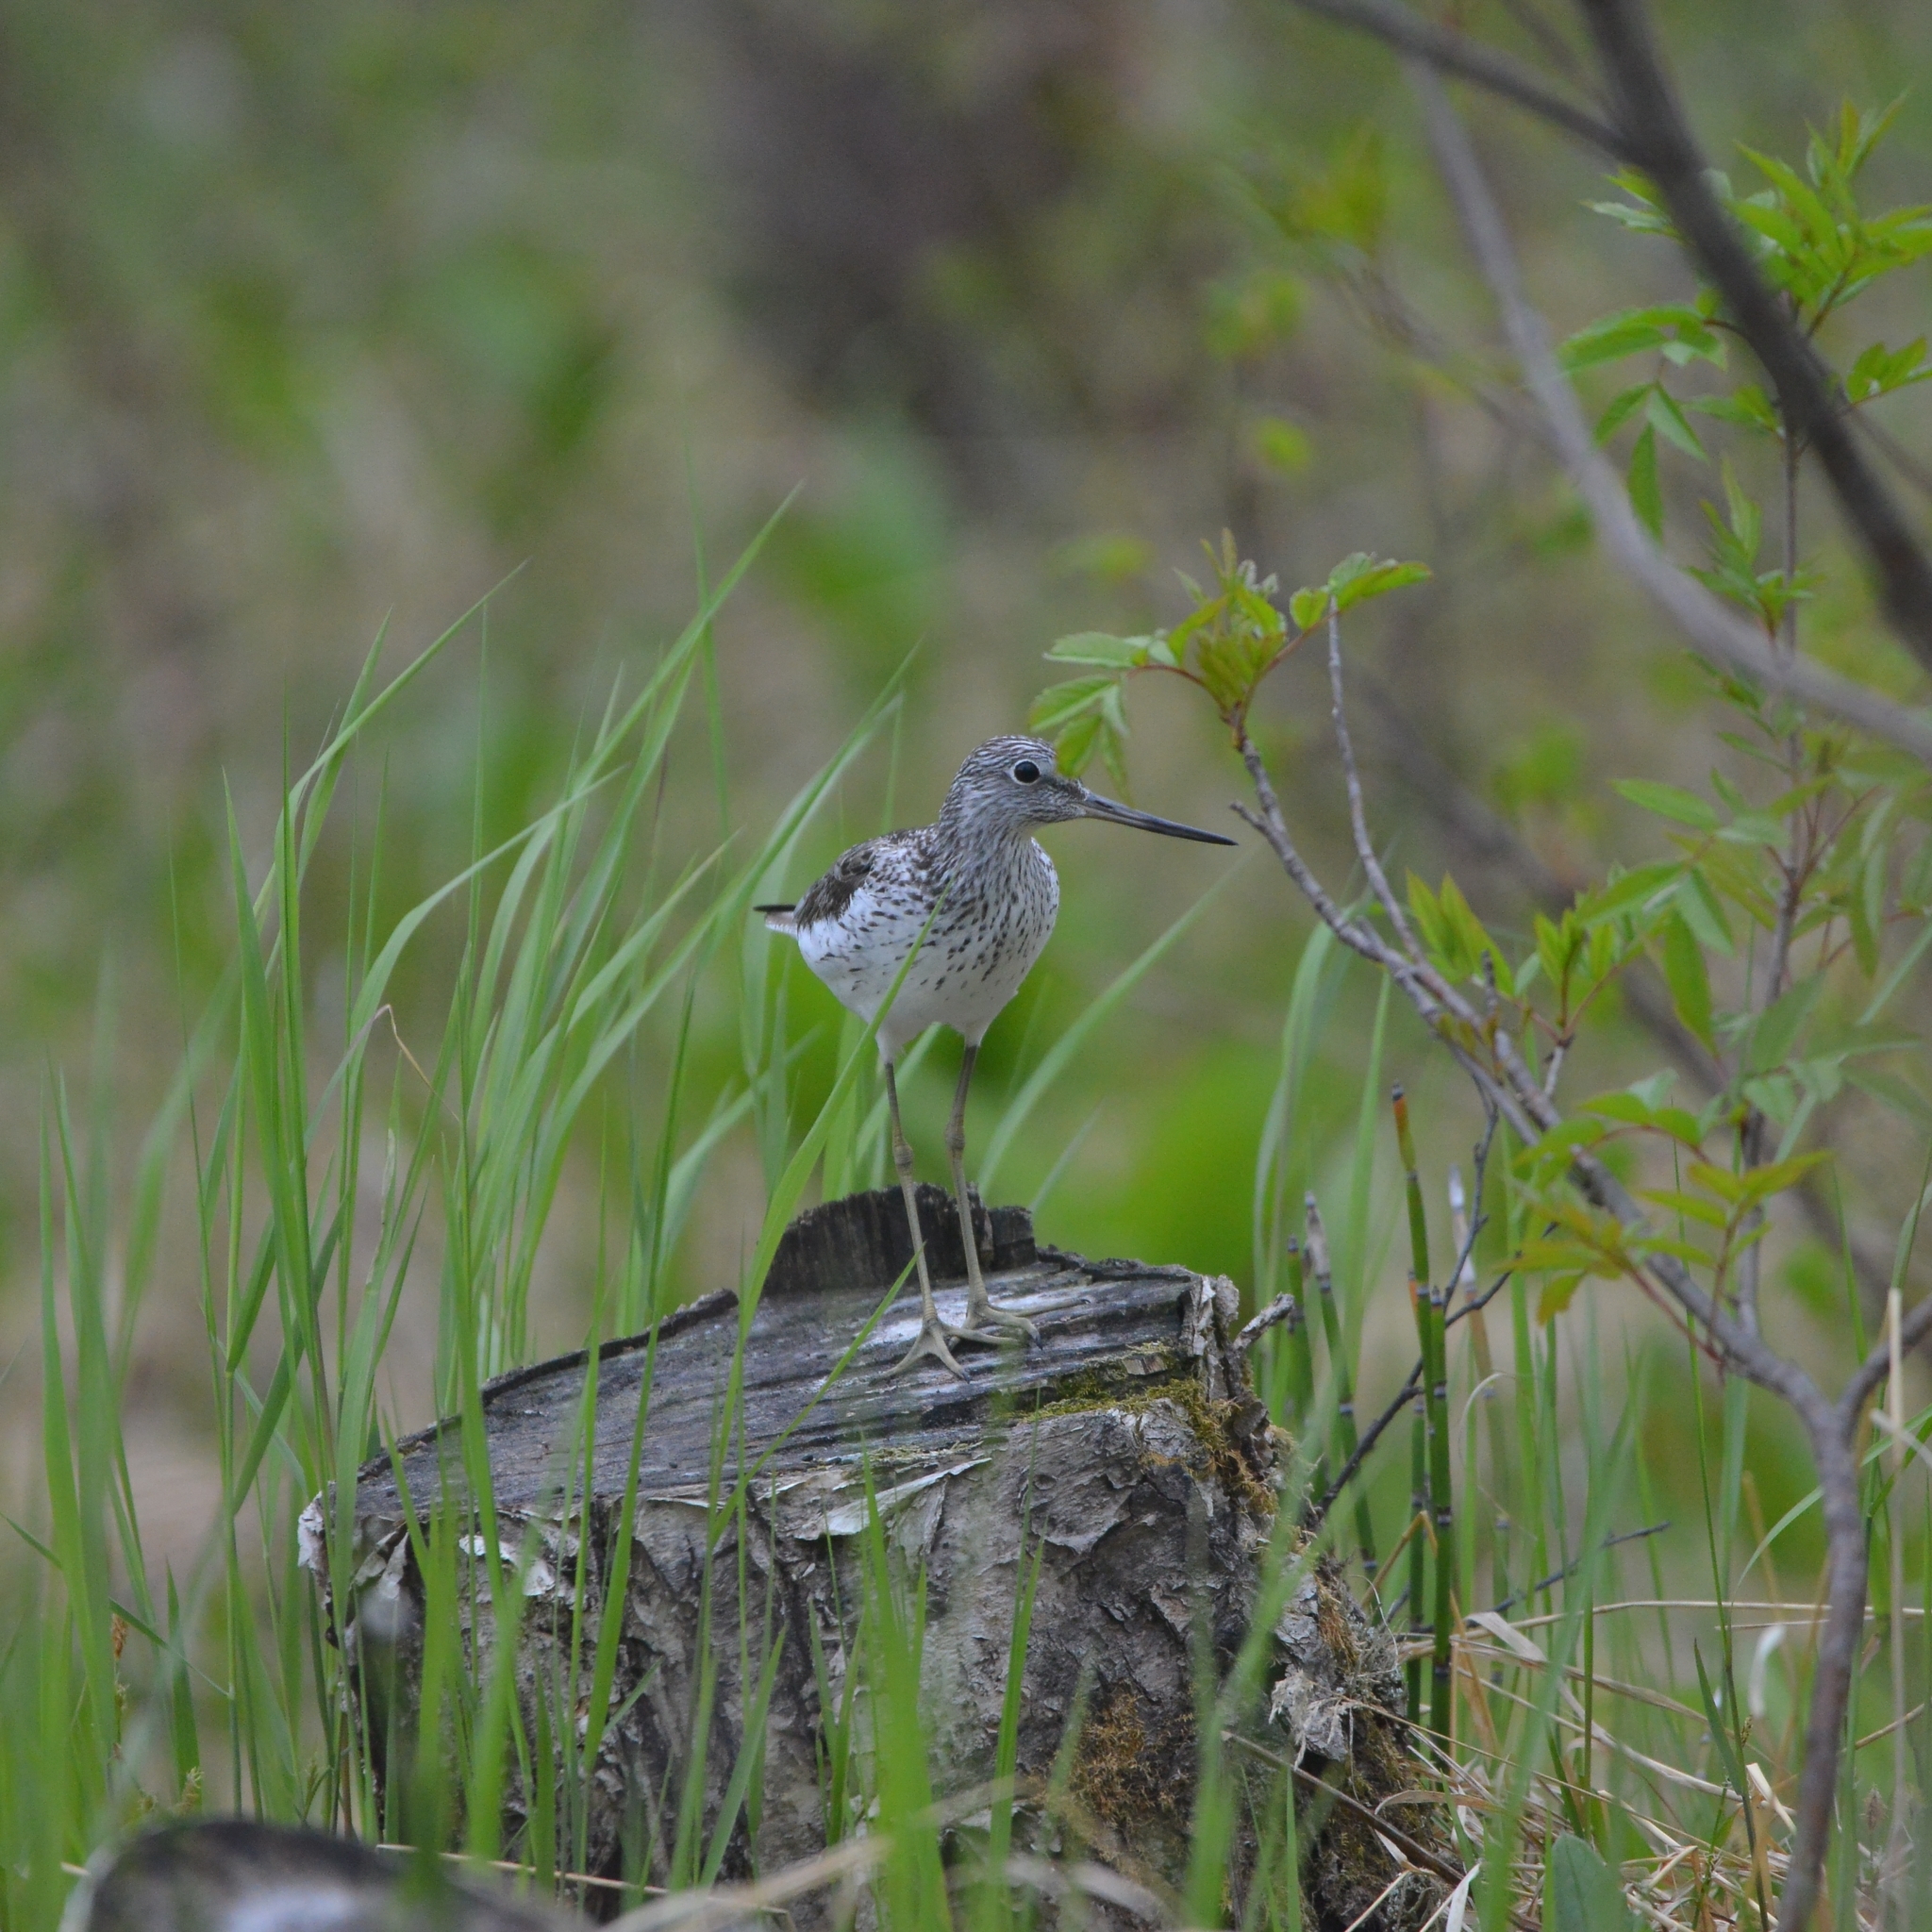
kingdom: Animalia
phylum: Chordata
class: Aves
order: Charadriiformes
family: Scolopacidae
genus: Tringa
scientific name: Tringa nebularia
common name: Common greenshank
